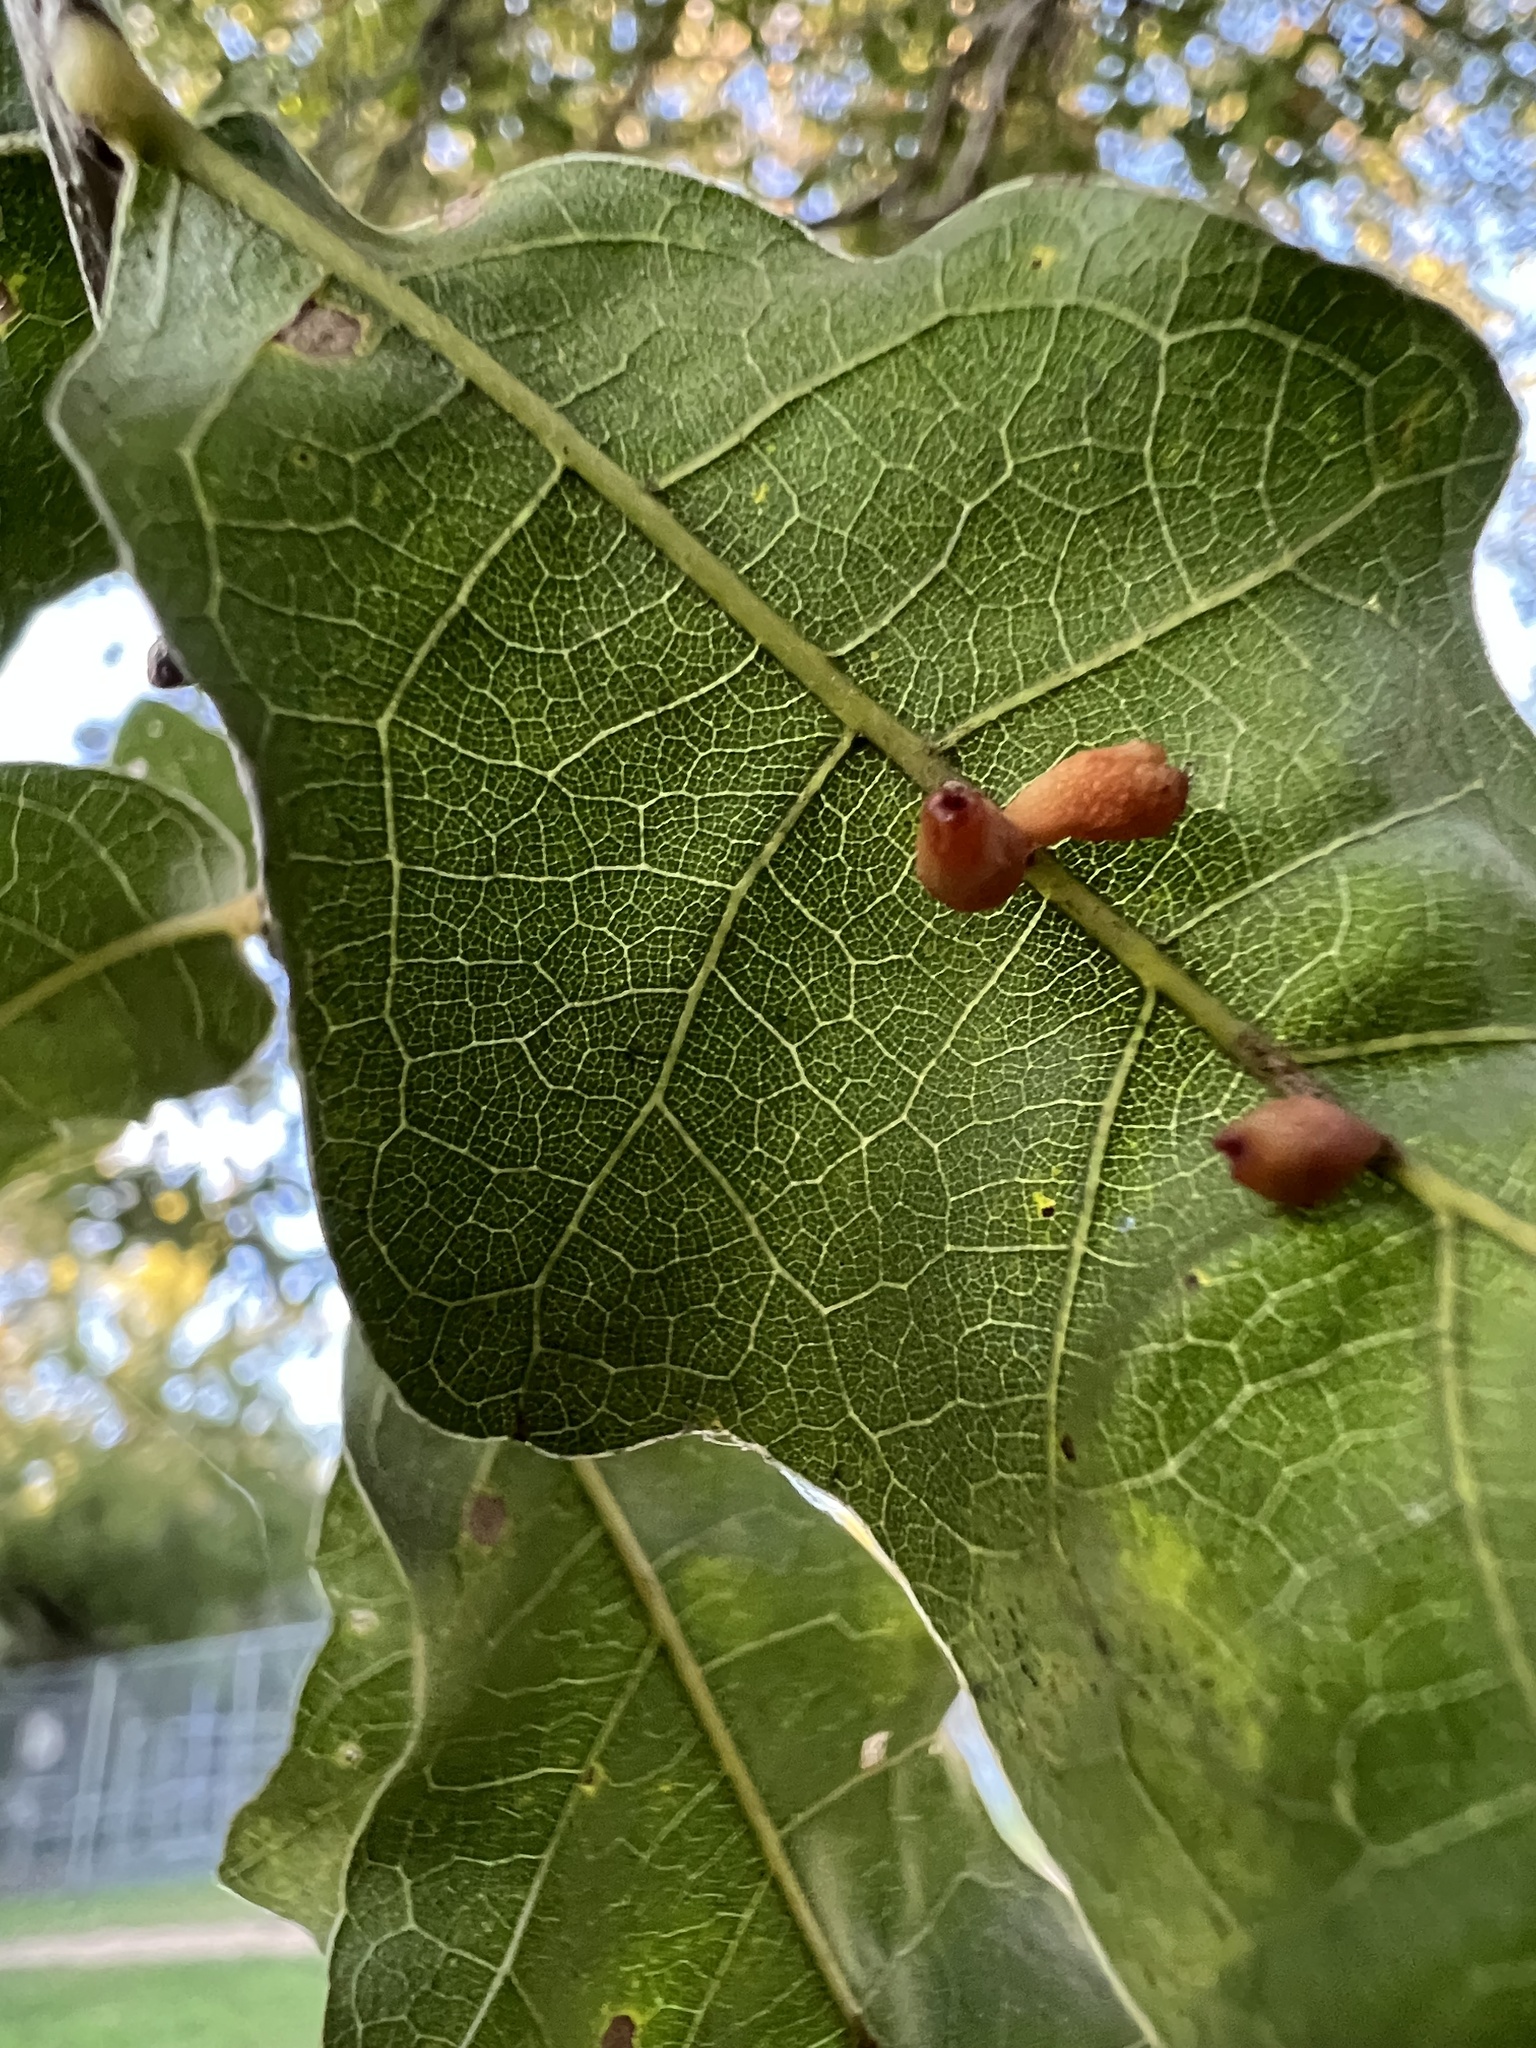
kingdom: Animalia
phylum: Arthropoda
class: Insecta
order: Hymenoptera
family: Cynipidae
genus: Andricus
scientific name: Andricus lustrans
